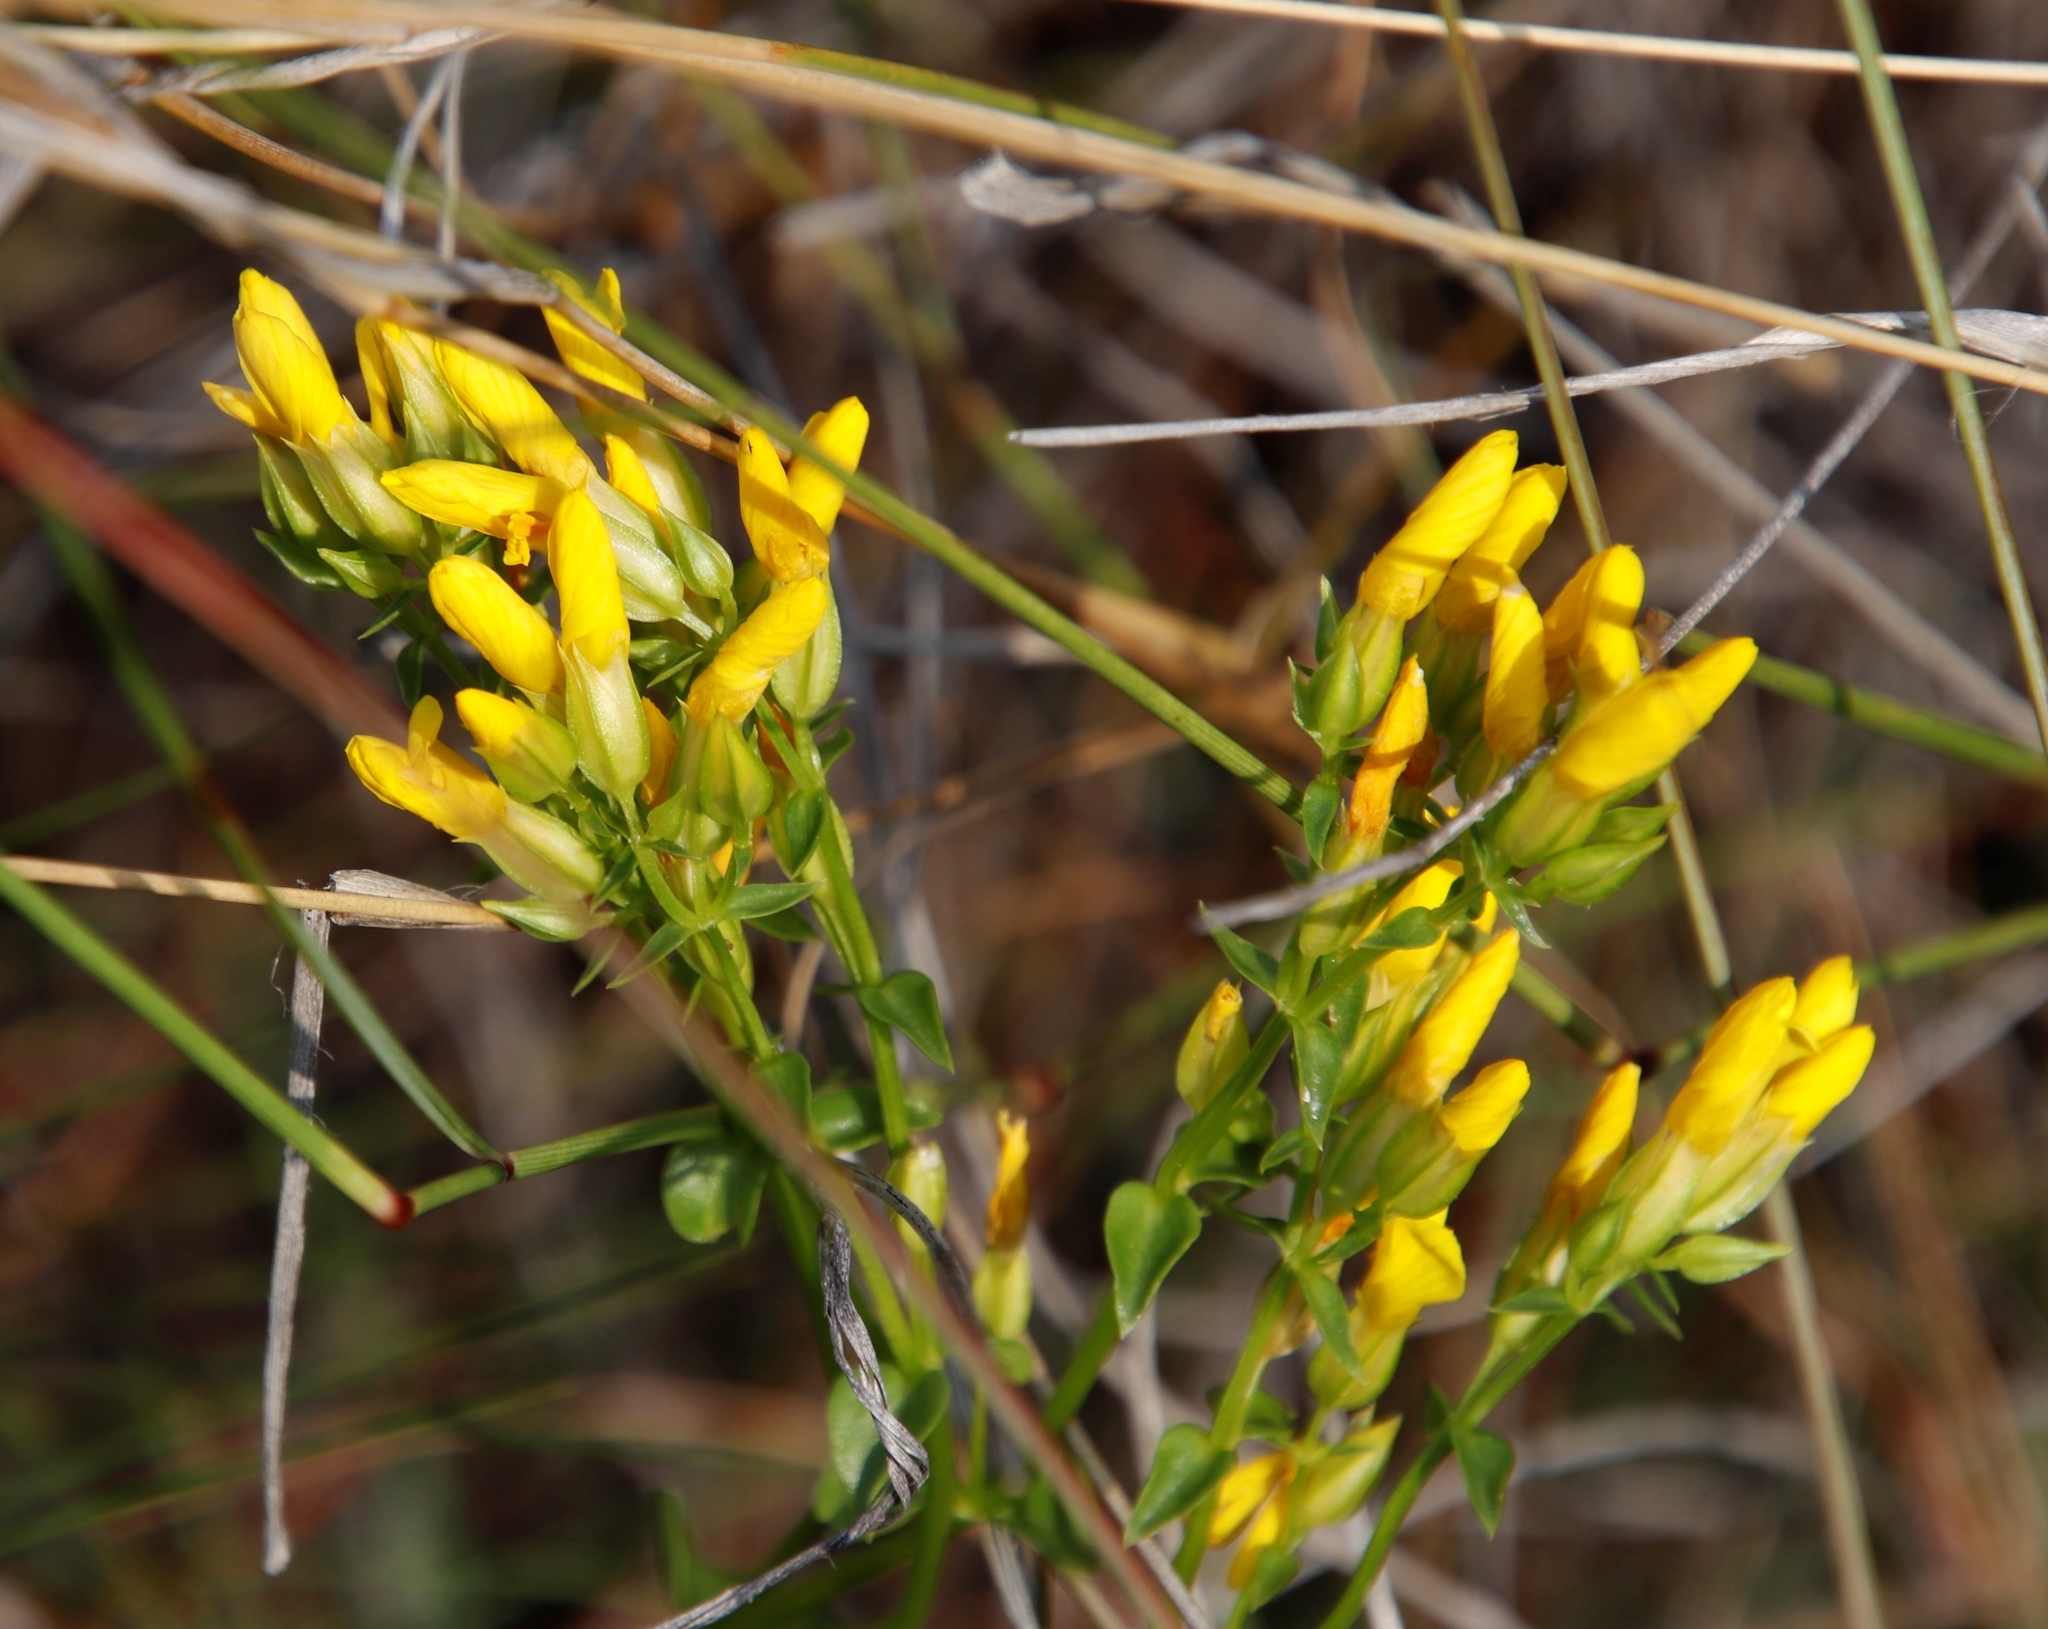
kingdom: Plantae
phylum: Tracheophyta
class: Magnoliopsida
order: Gentianales
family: Gentianaceae
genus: Sebaea
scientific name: Sebaea natalensis
